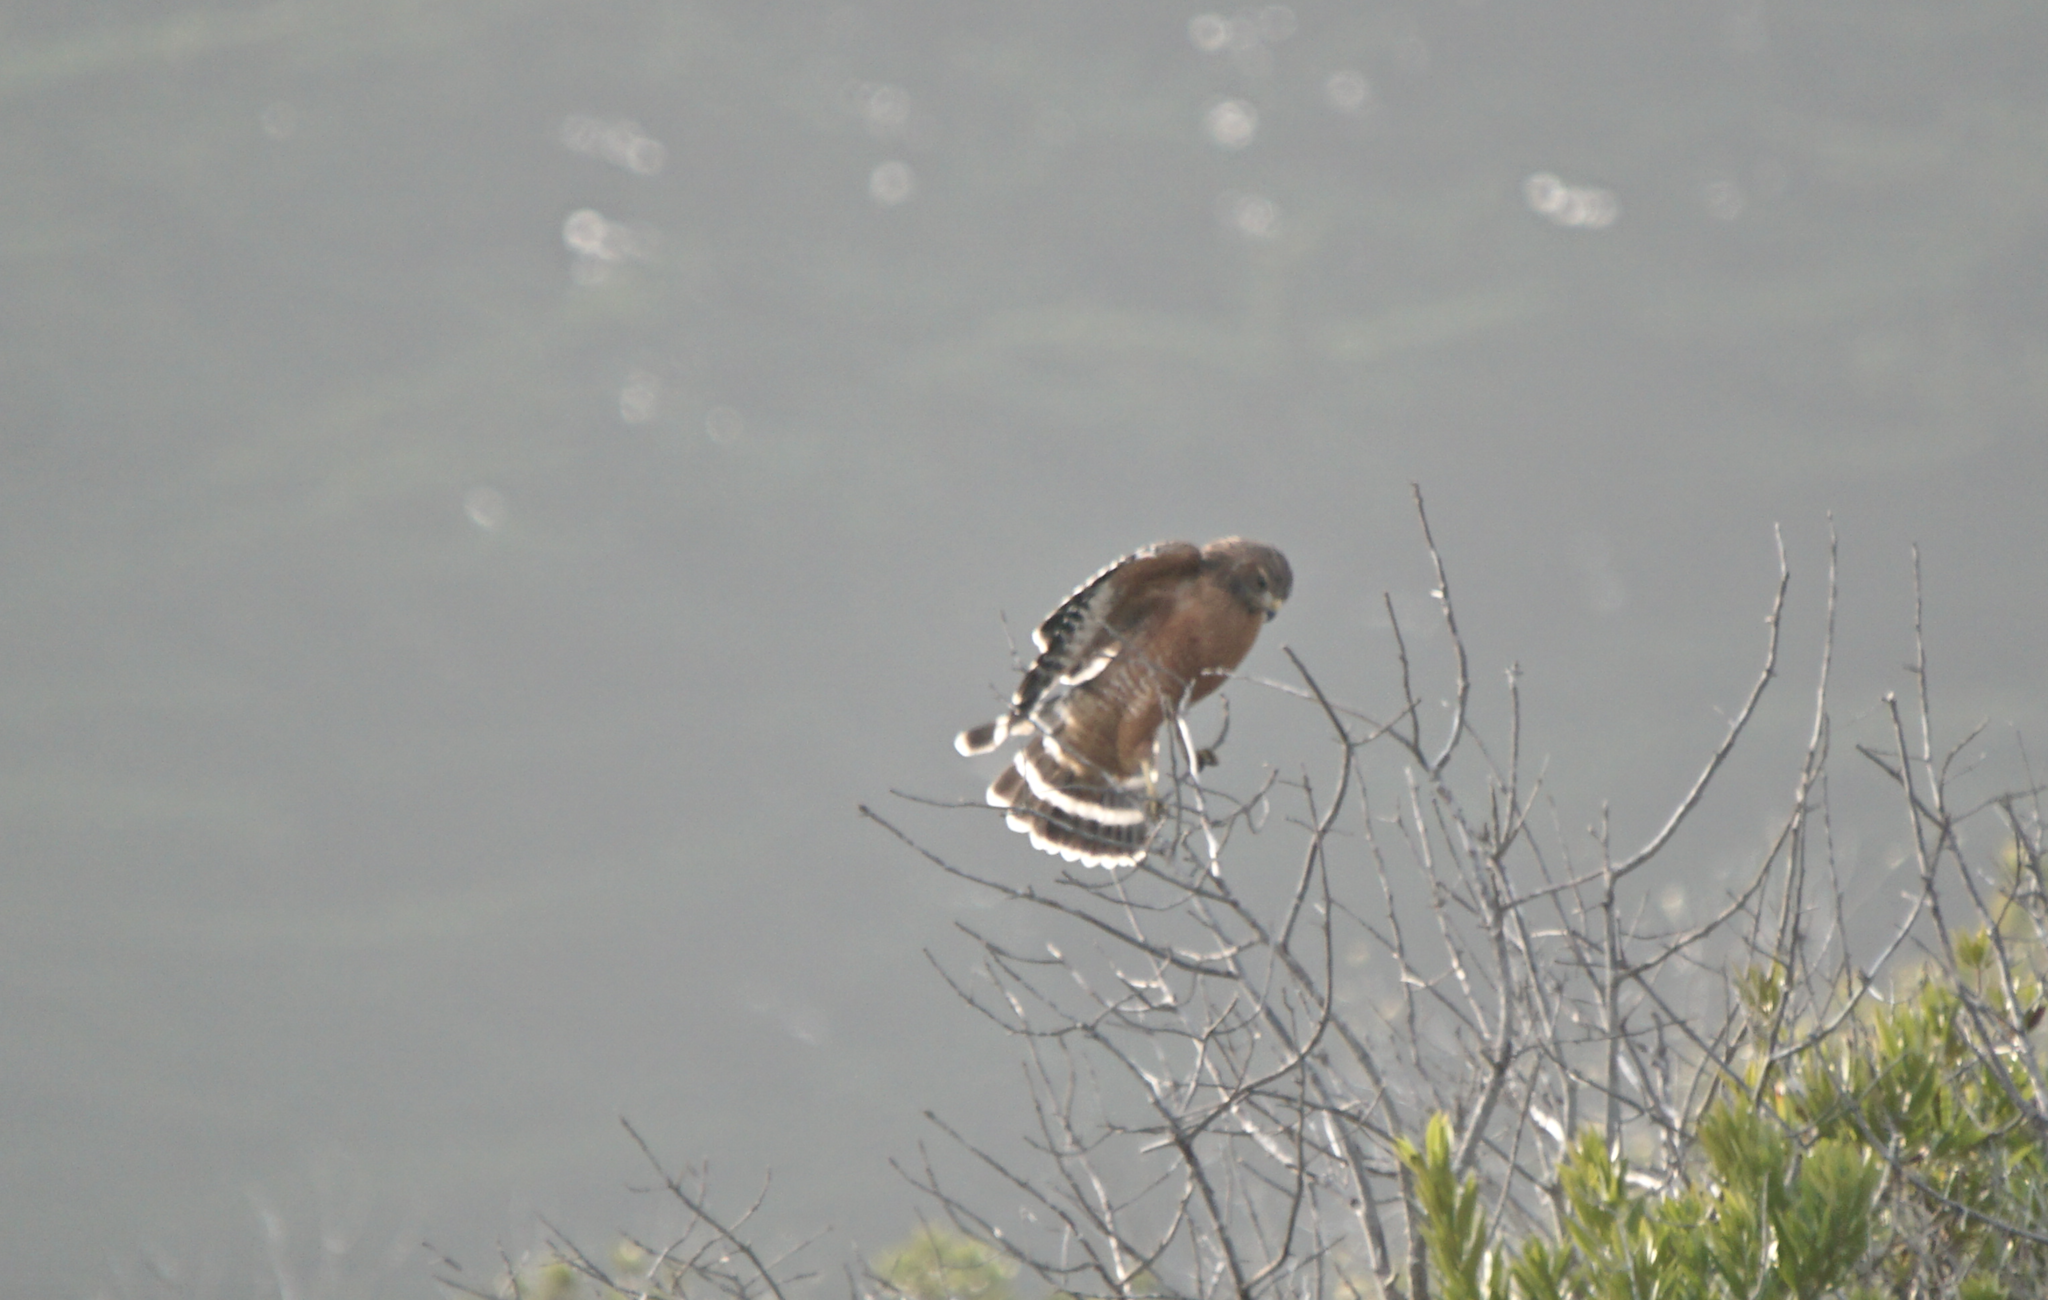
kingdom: Animalia
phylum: Chordata
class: Aves
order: Accipitriformes
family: Accipitridae
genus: Buteo
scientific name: Buteo lineatus
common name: Red-shouldered hawk
